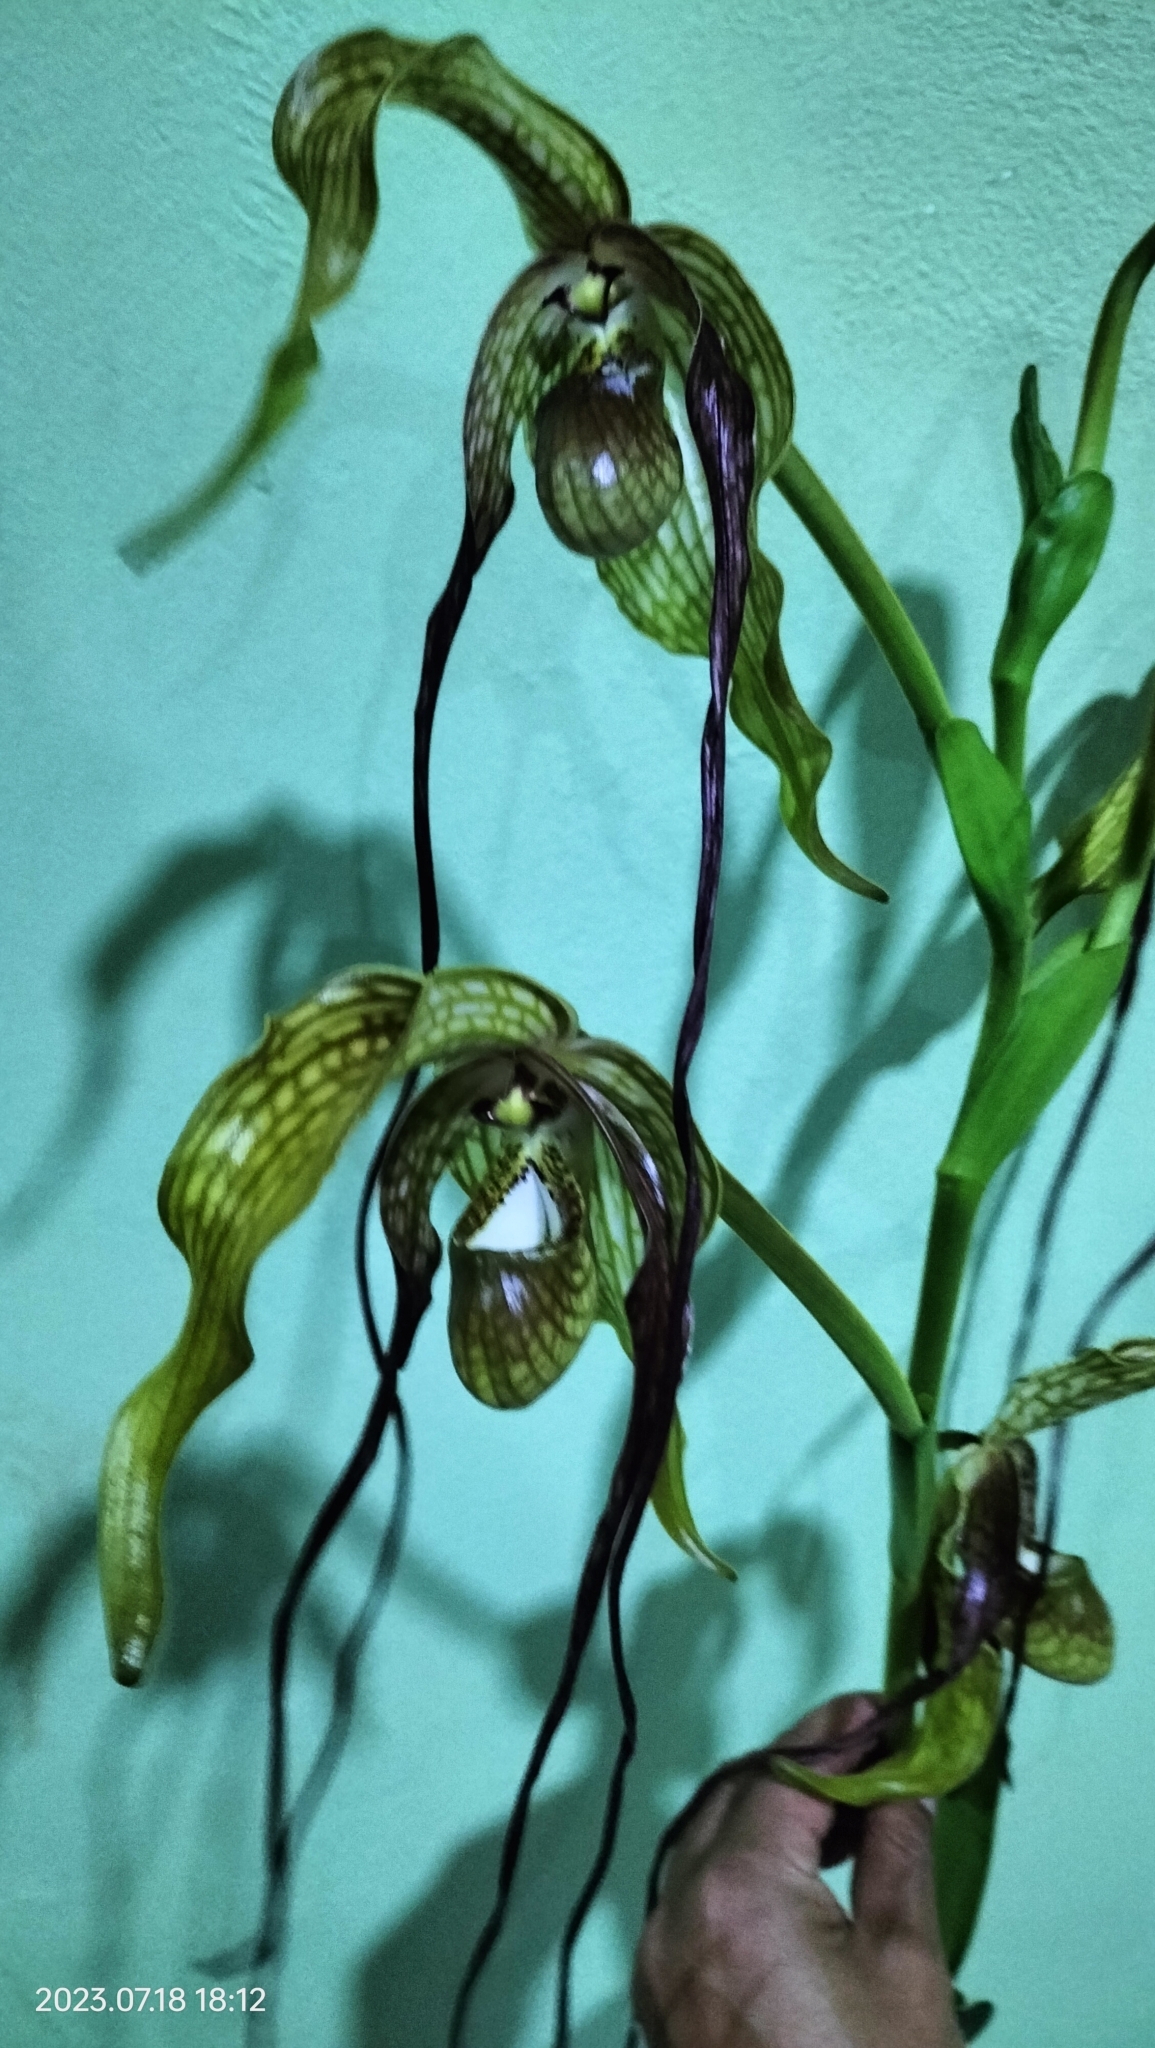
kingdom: Plantae
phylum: Tracheophyta
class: Liliopsida
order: Asparagales
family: Orchidaceae
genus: Phragmipedium
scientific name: Phragmipedium caudatum
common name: Tailed phragmipedium
